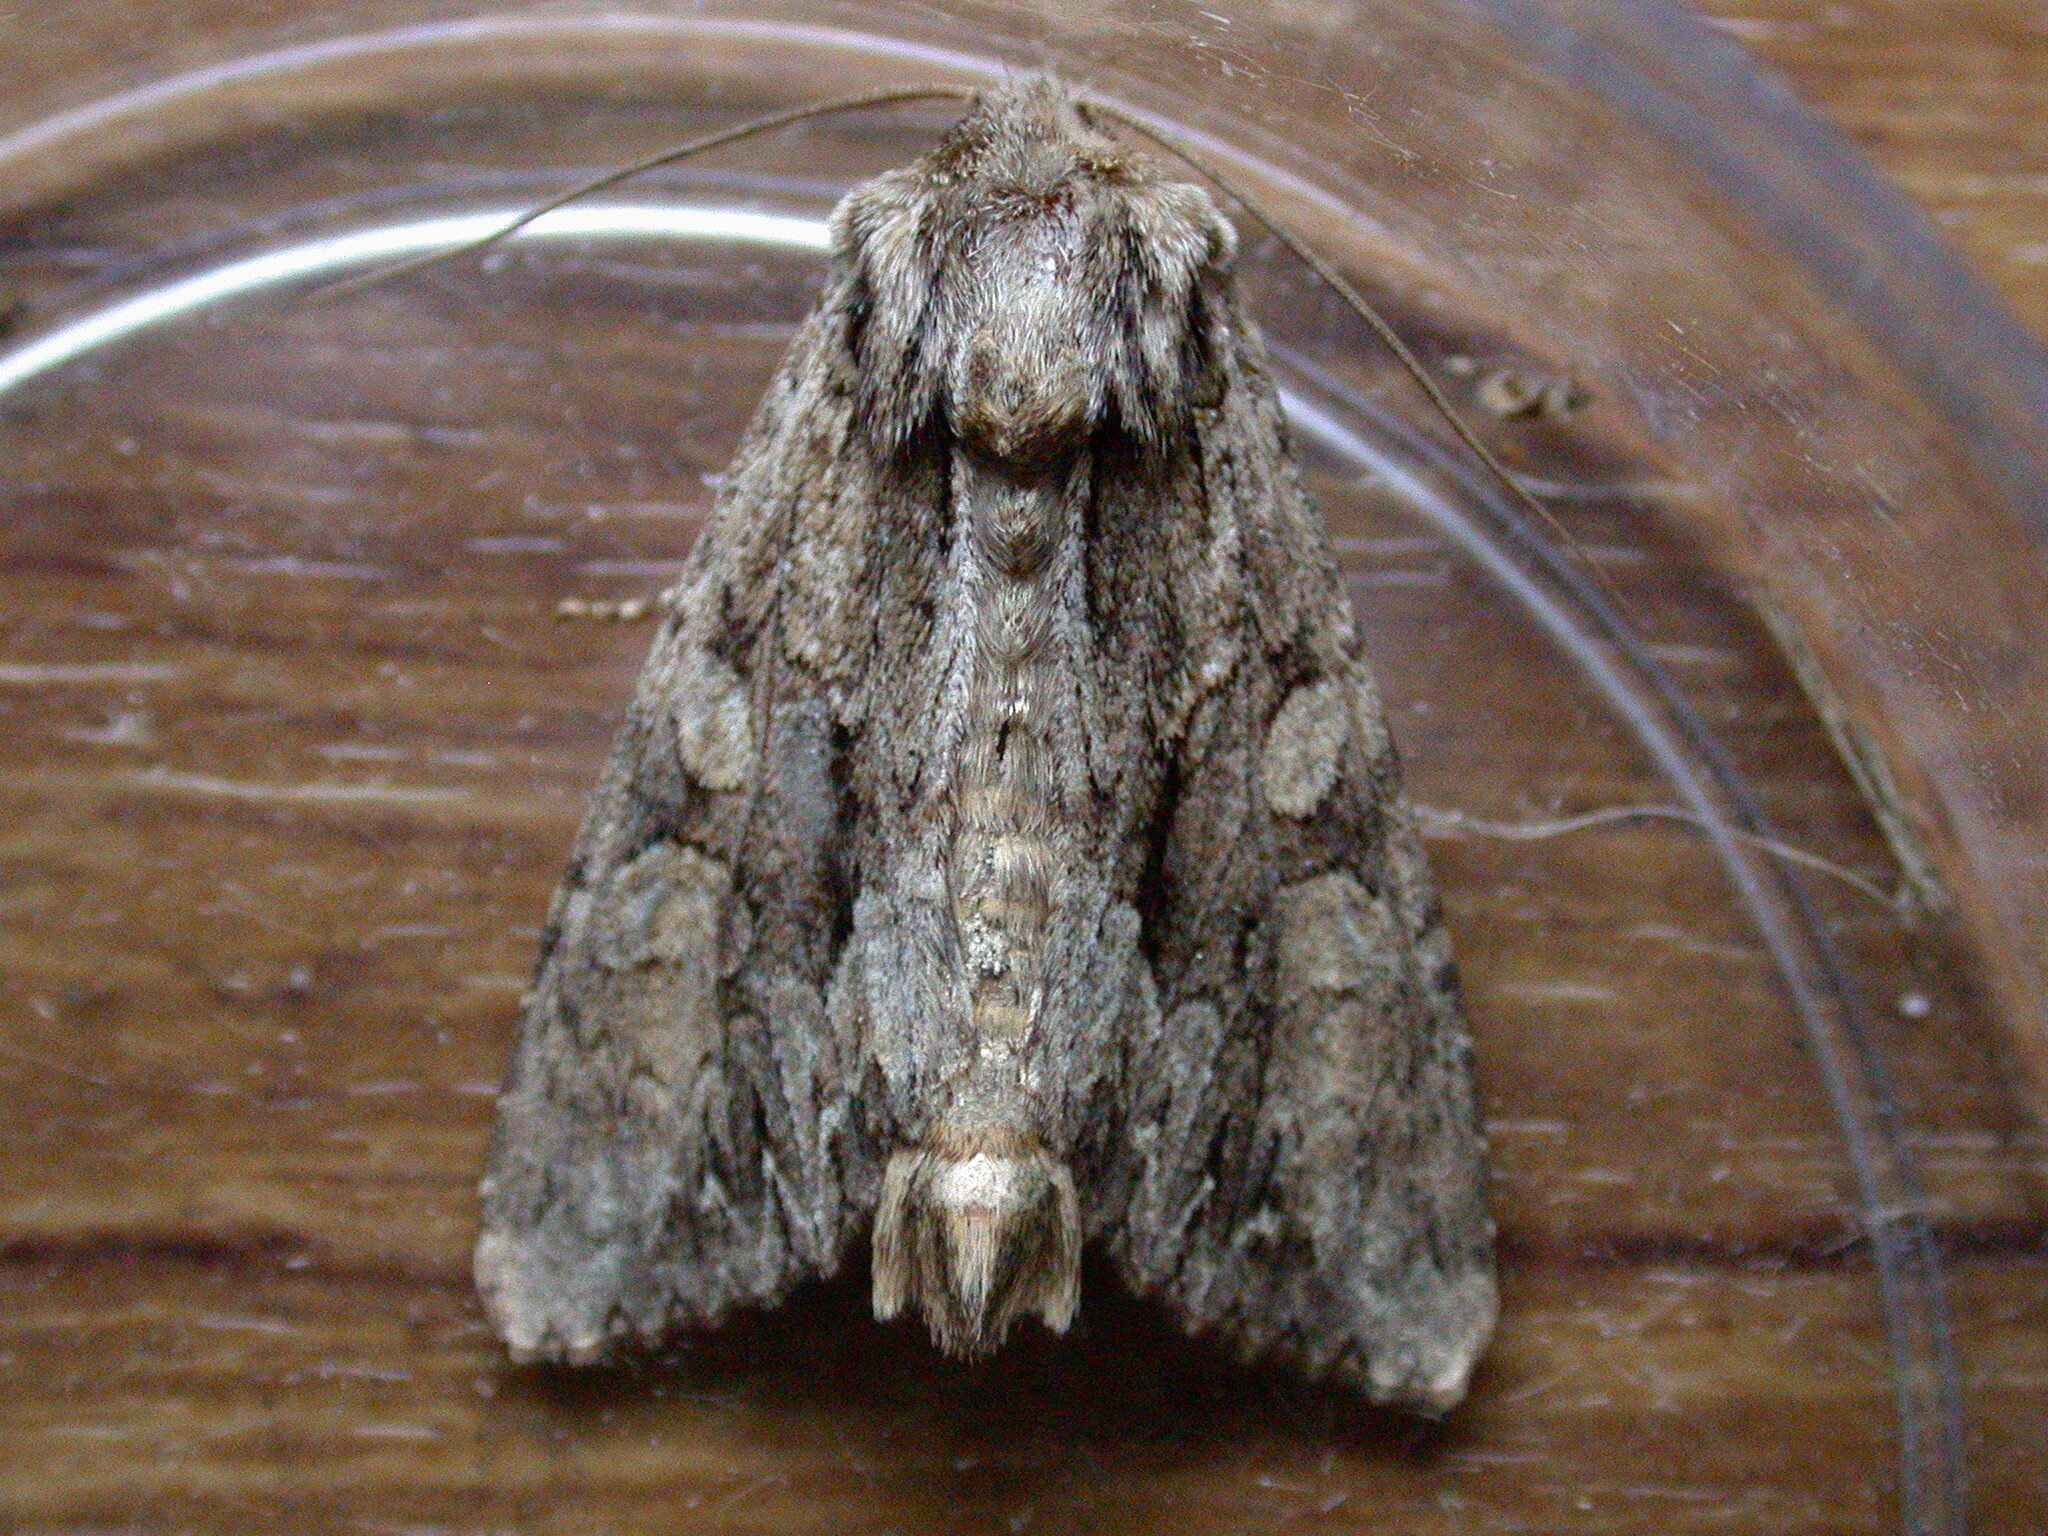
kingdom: Animalia
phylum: Arthropoda
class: Insecta
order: Lepidoptera
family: Noctuidae
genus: Apamea
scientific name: Apamea monoglypha
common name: Dark arches
